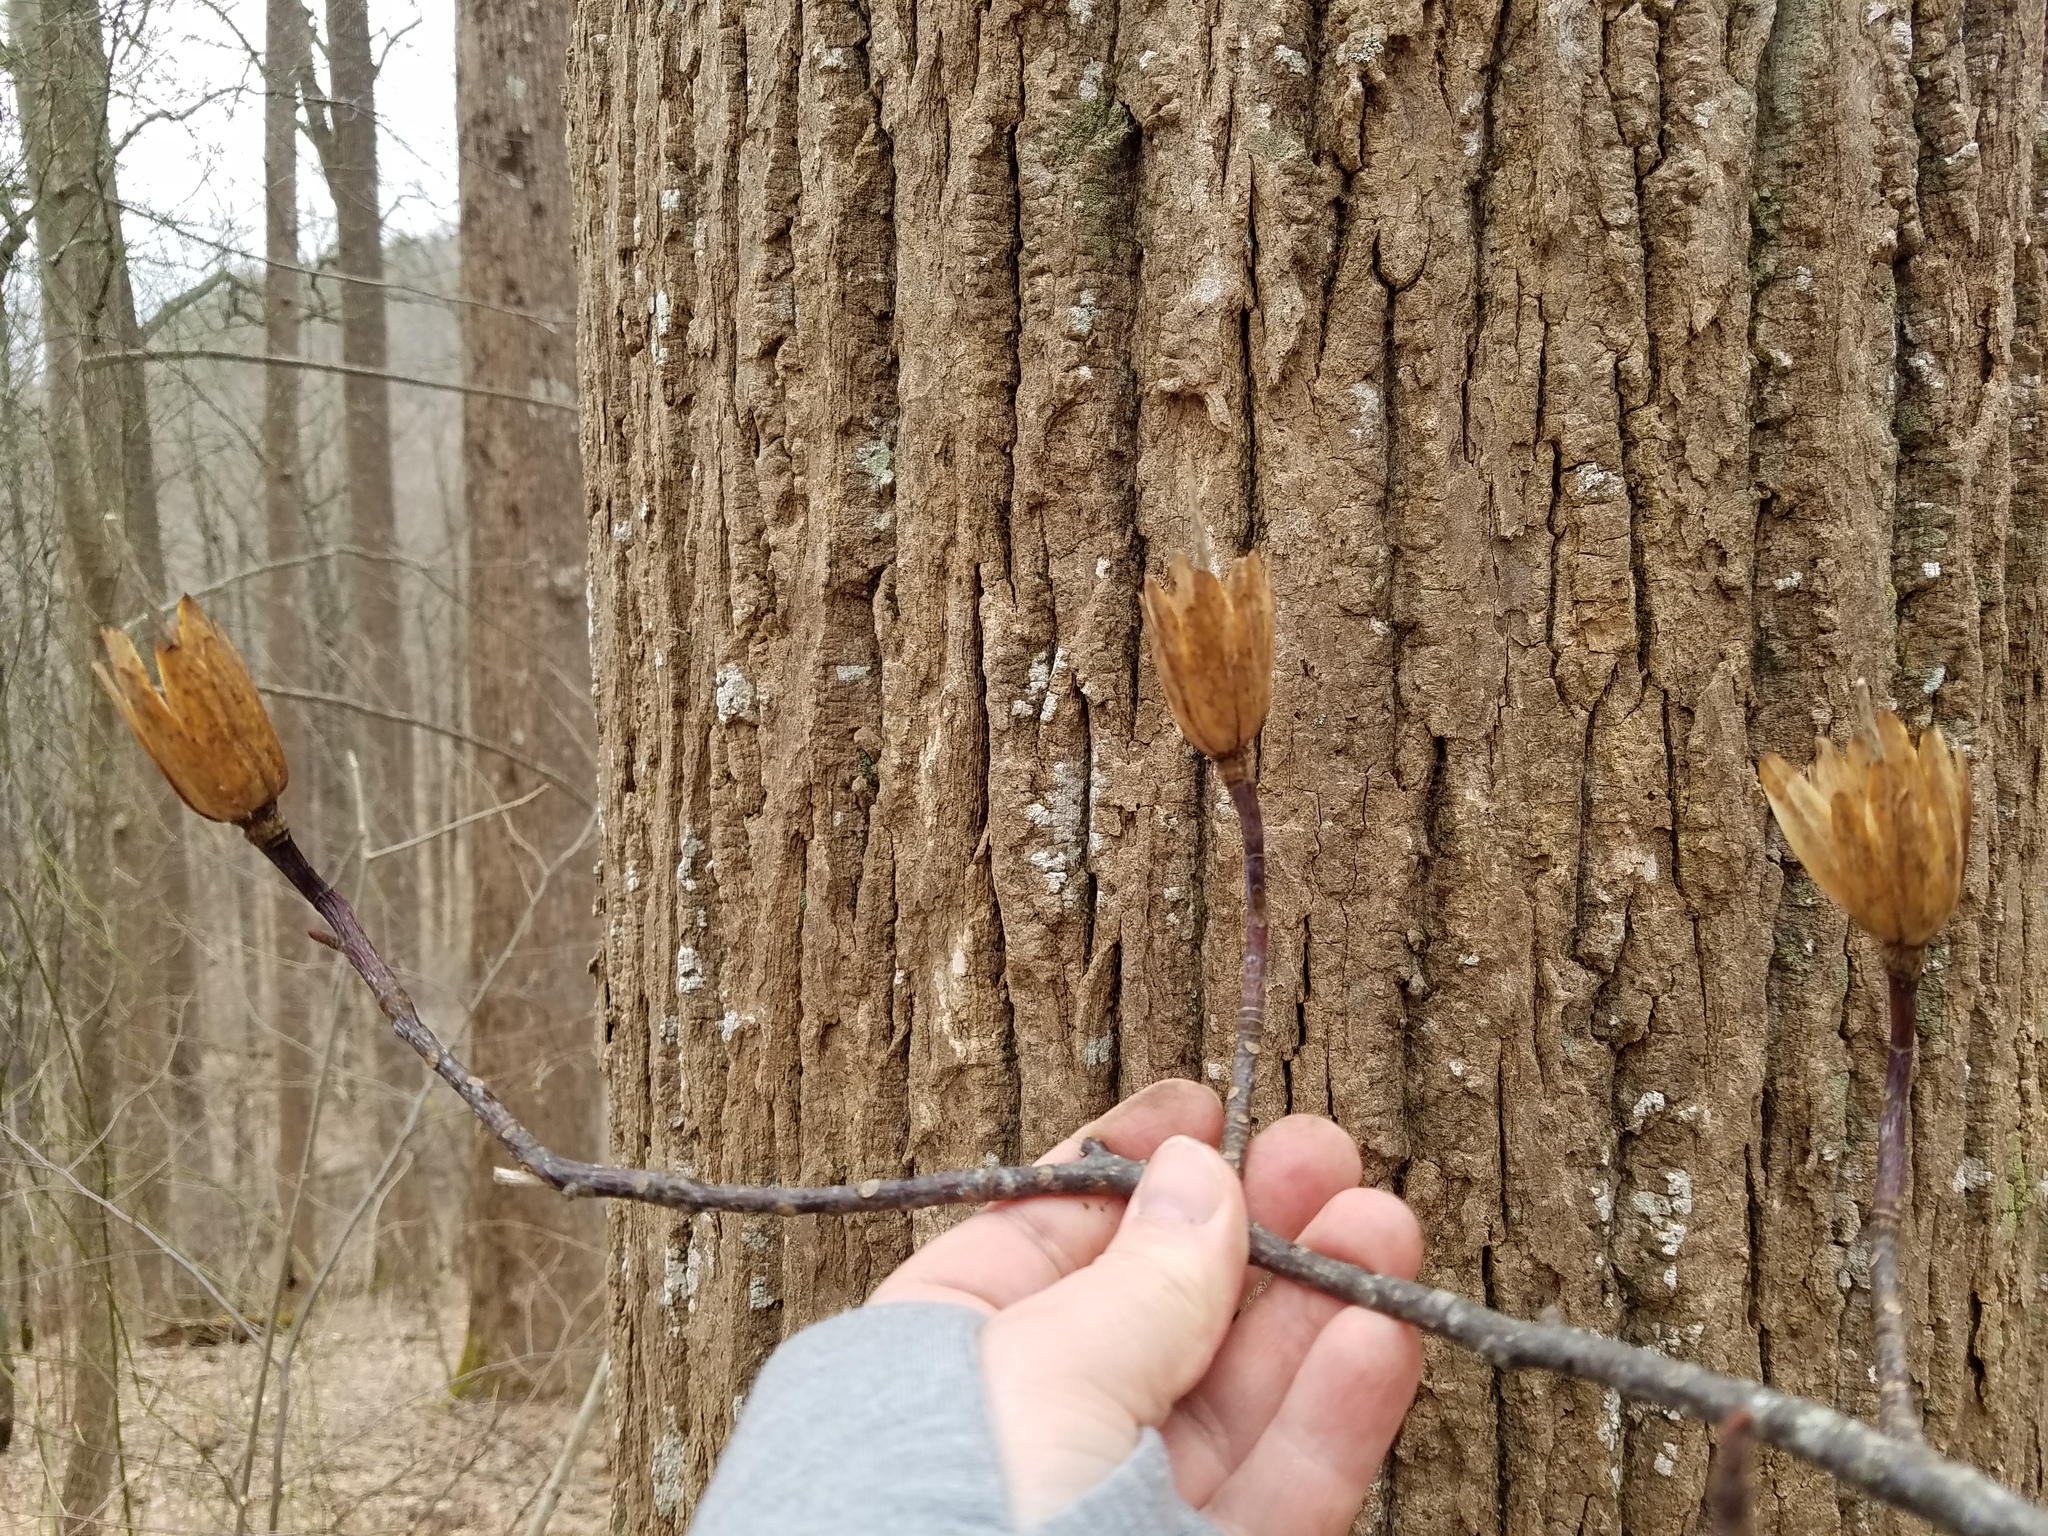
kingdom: Plantae
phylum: Tracheophyta
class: Magnoliopsida
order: Magnoliales
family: Magnoliaceae
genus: Liriodendron
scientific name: Liriodendron tulipifera
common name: Tulip tree
